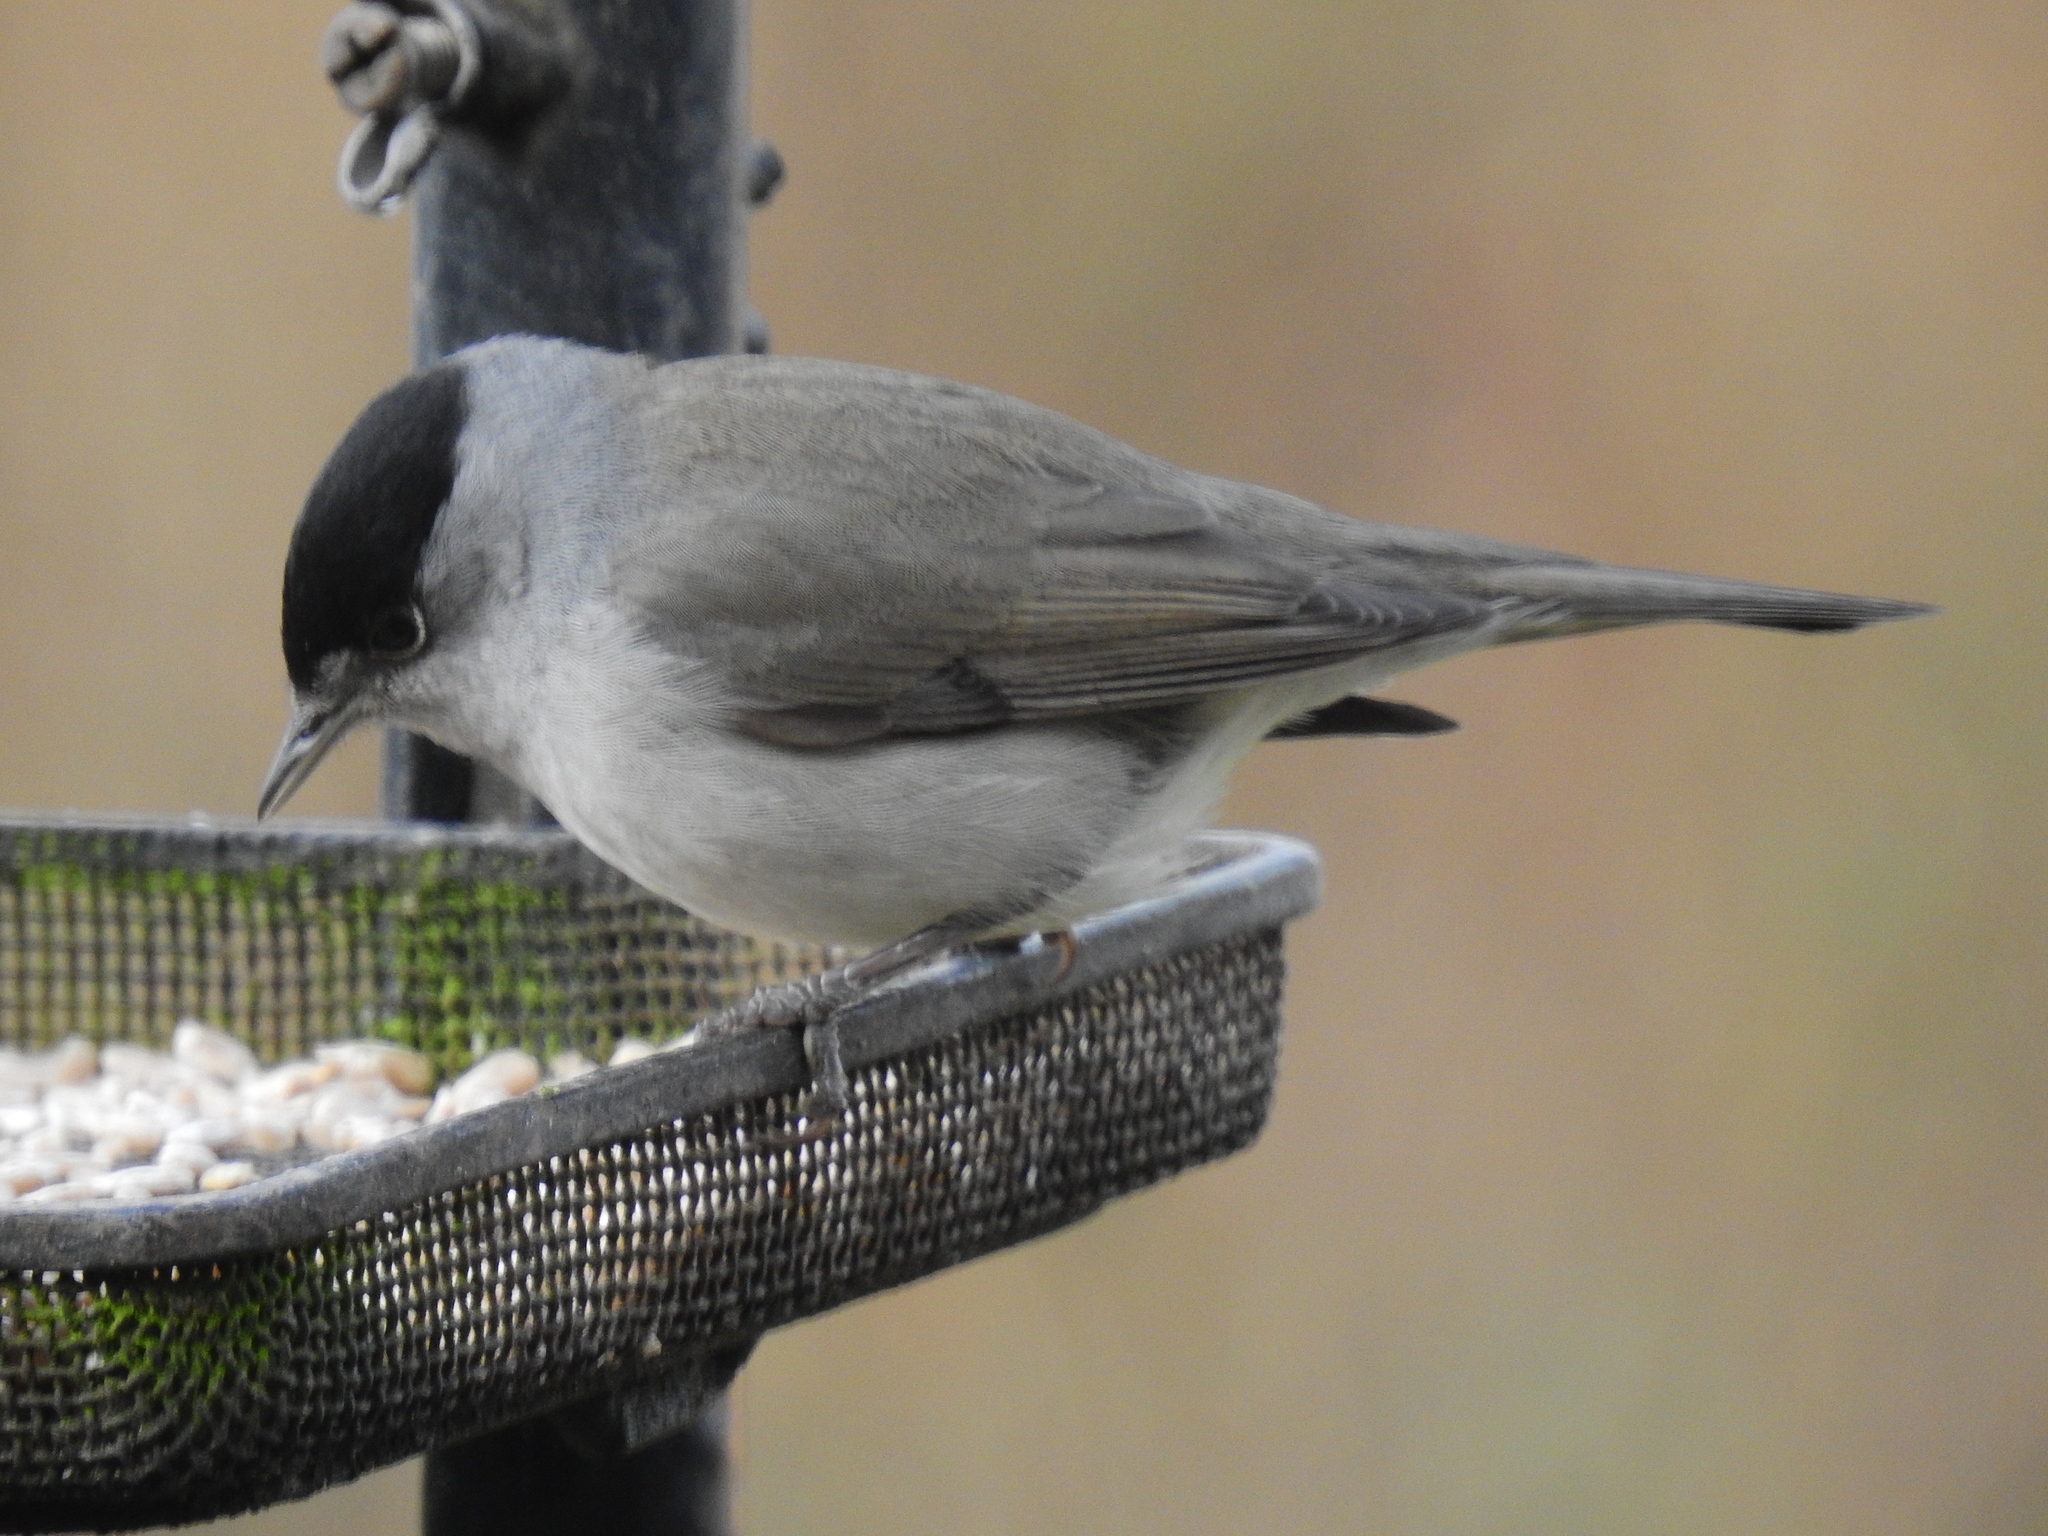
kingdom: Animalia
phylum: Chordata
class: Aves
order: Passeriformes
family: Sylviidae
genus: Sylvia
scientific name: Sylvia atricapilla
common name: Eurasian blackcap
